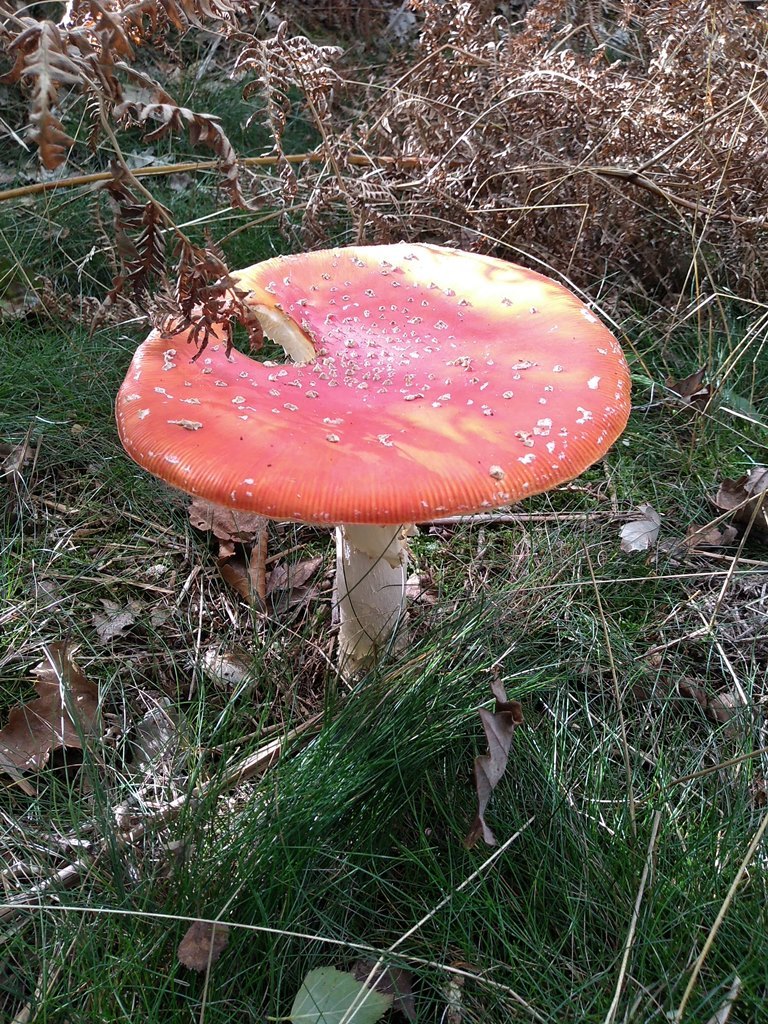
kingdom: Fungi
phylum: Basidiomycota
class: Agaricomycetes
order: Agaricales
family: Amanitaceae
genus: Amanita
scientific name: Amanita muscaria
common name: Fly agaric
